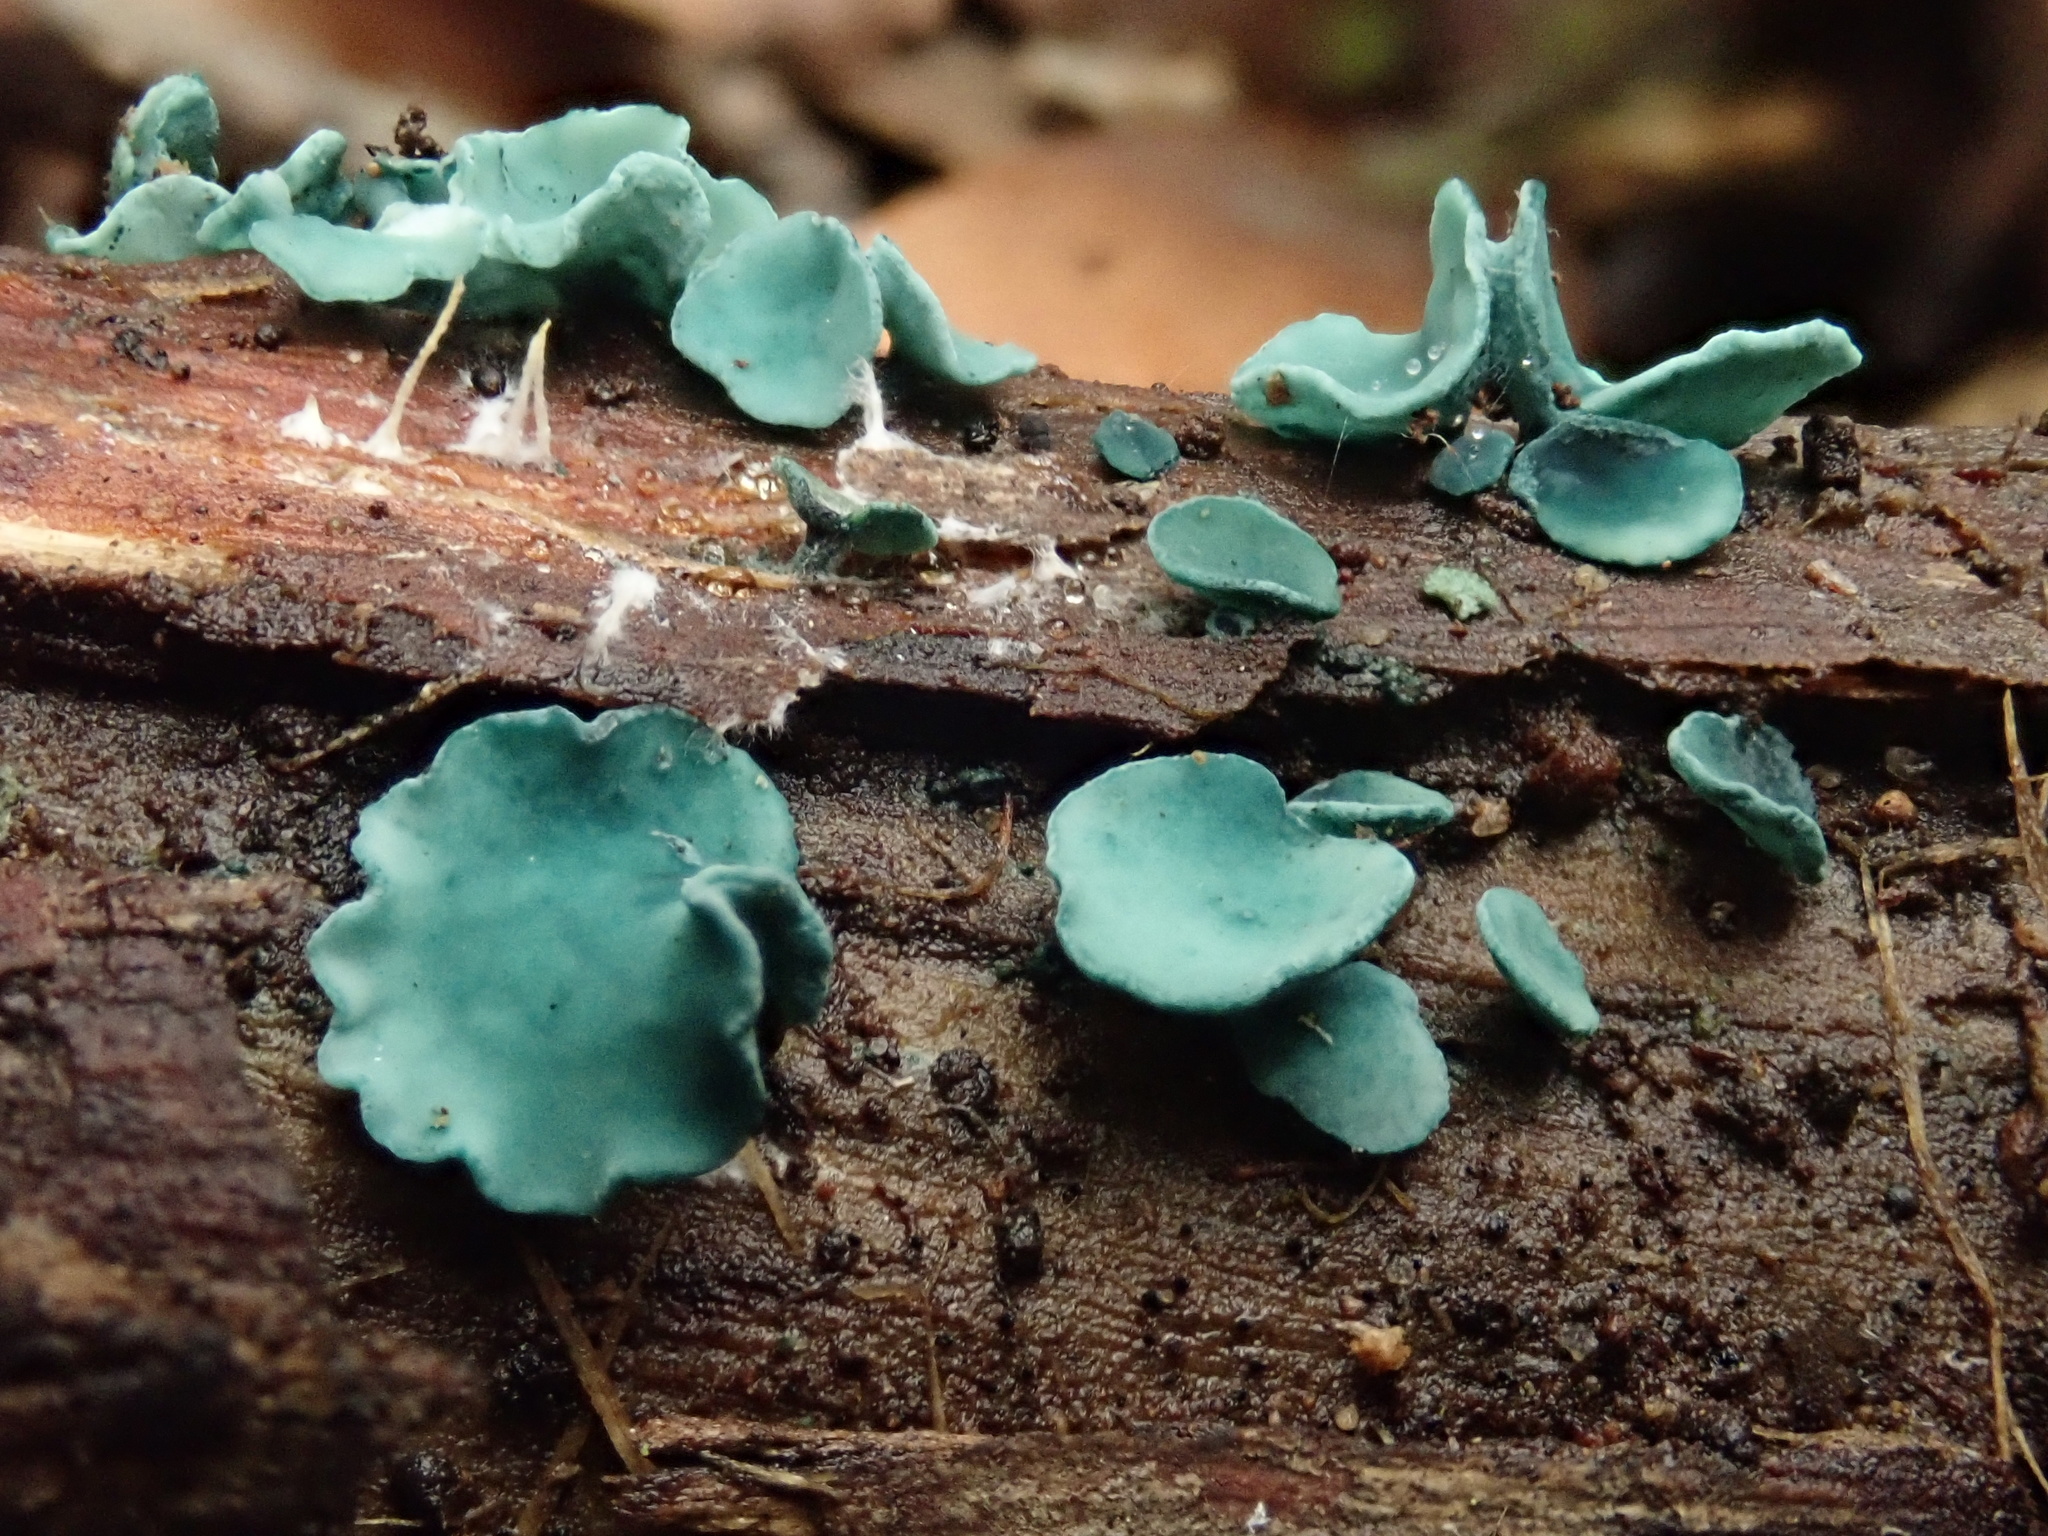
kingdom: Fungi
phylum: Ascomycota
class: Leotiomycetes
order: Helotiales
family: Chlorociboriaceae
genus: Chlorociboria
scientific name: Chlorociboria
